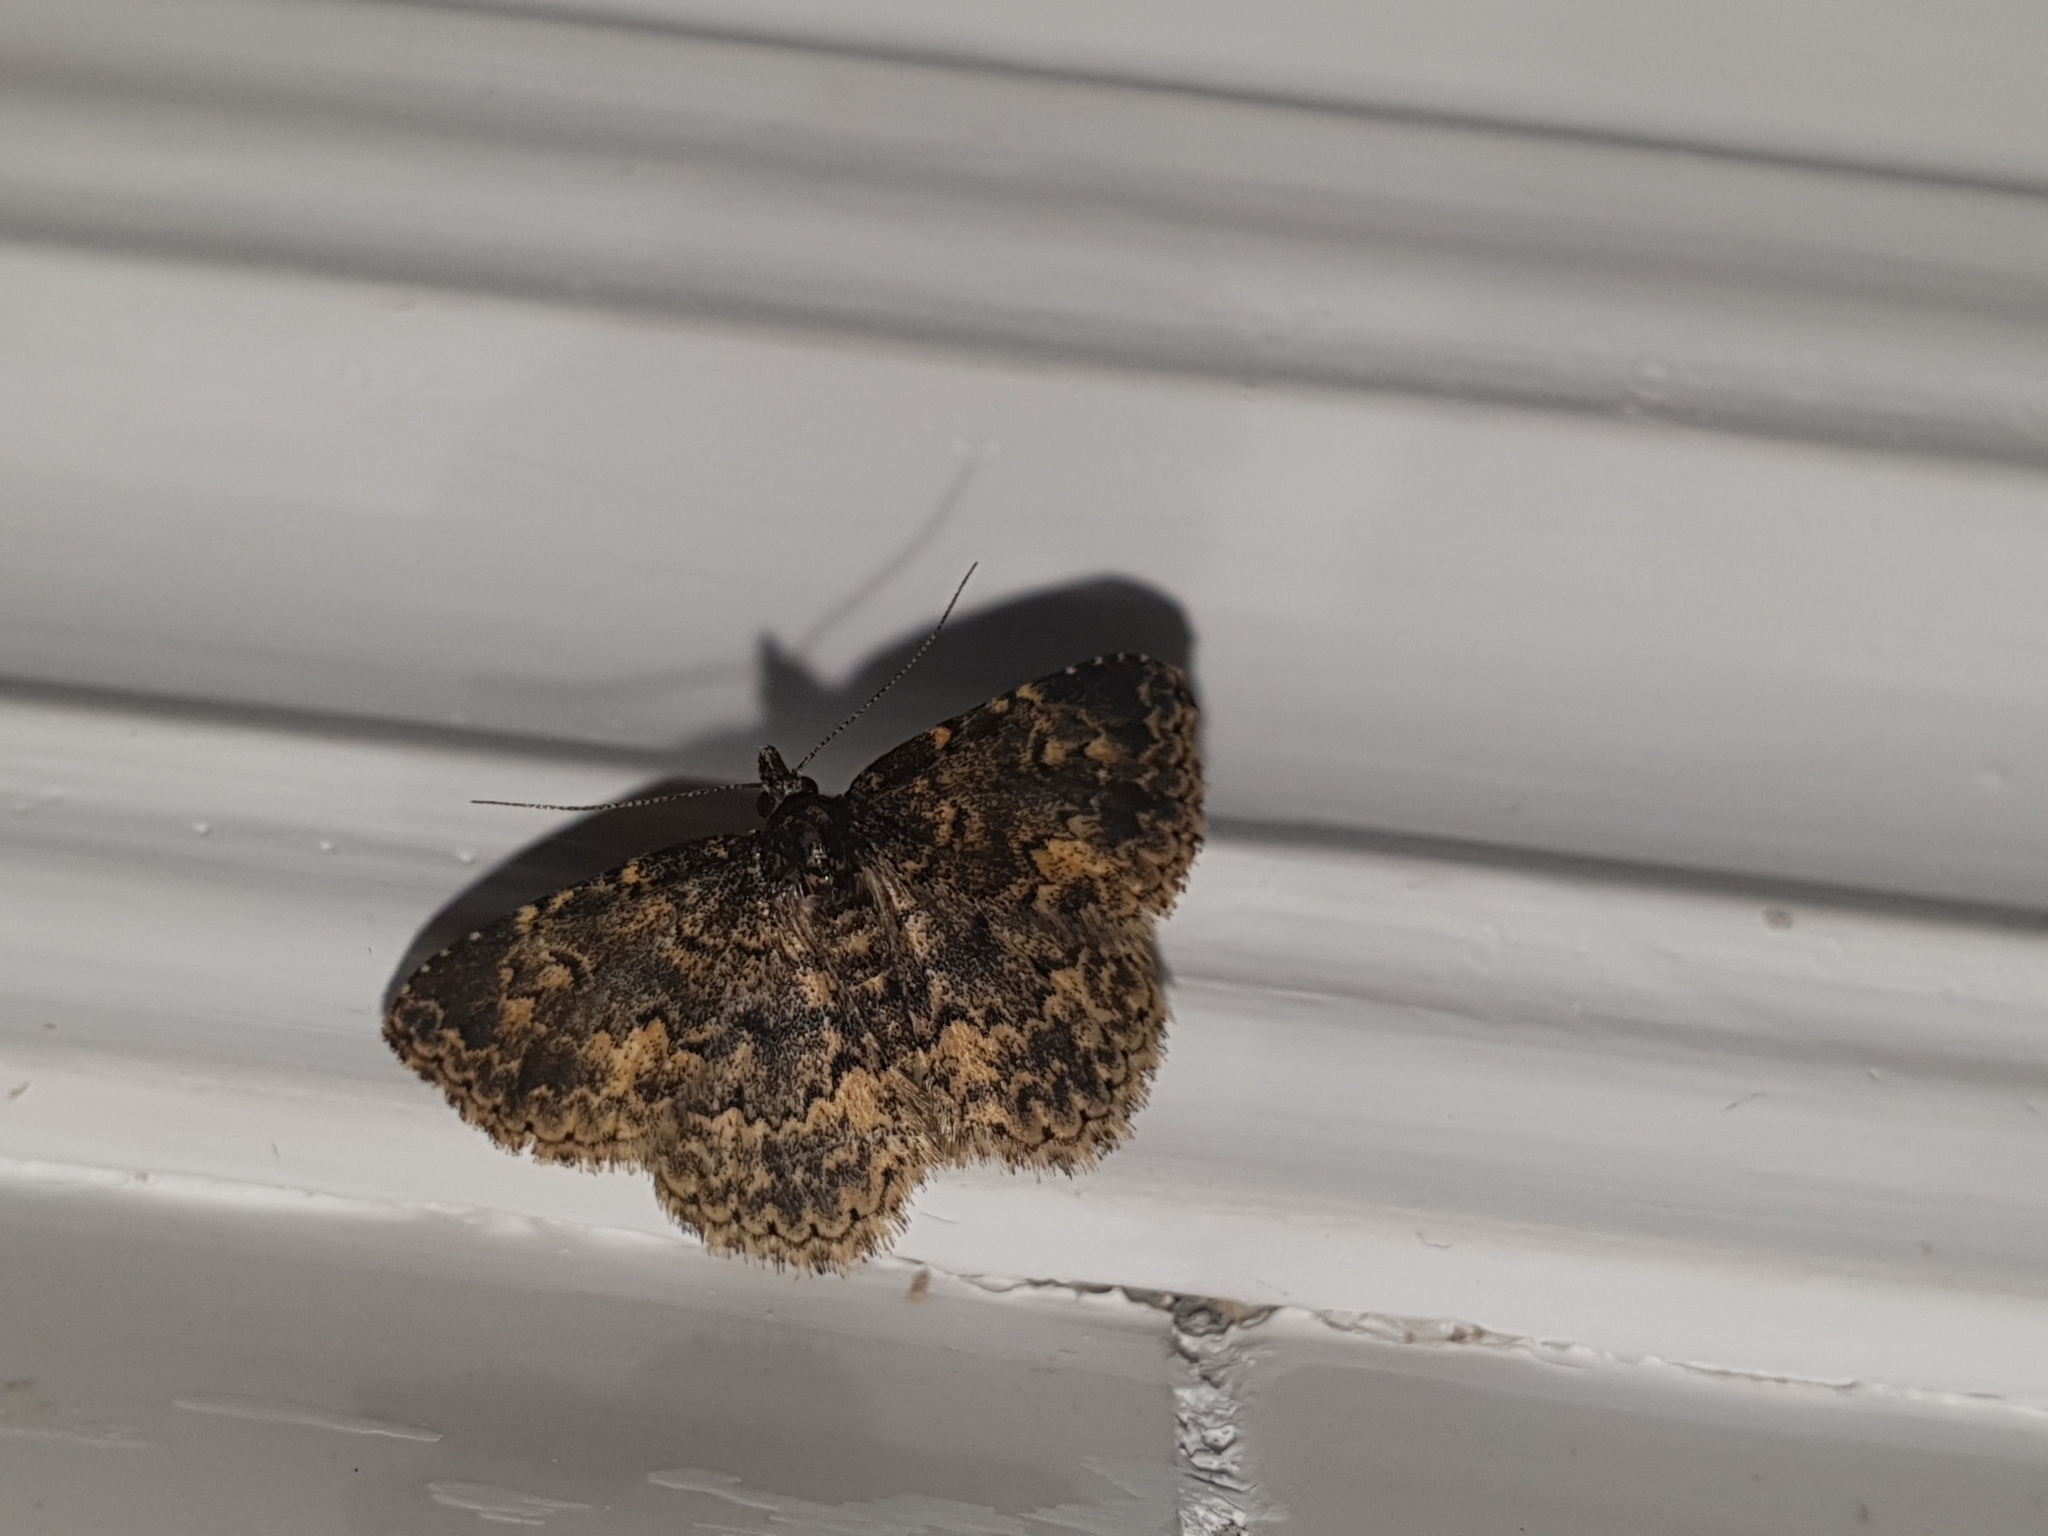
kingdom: Animalia
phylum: Arthropoda
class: Insecta
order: Lepidoptera
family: Erebidae
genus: Parascotia
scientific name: Parascotia fuliginaria
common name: Waved black
